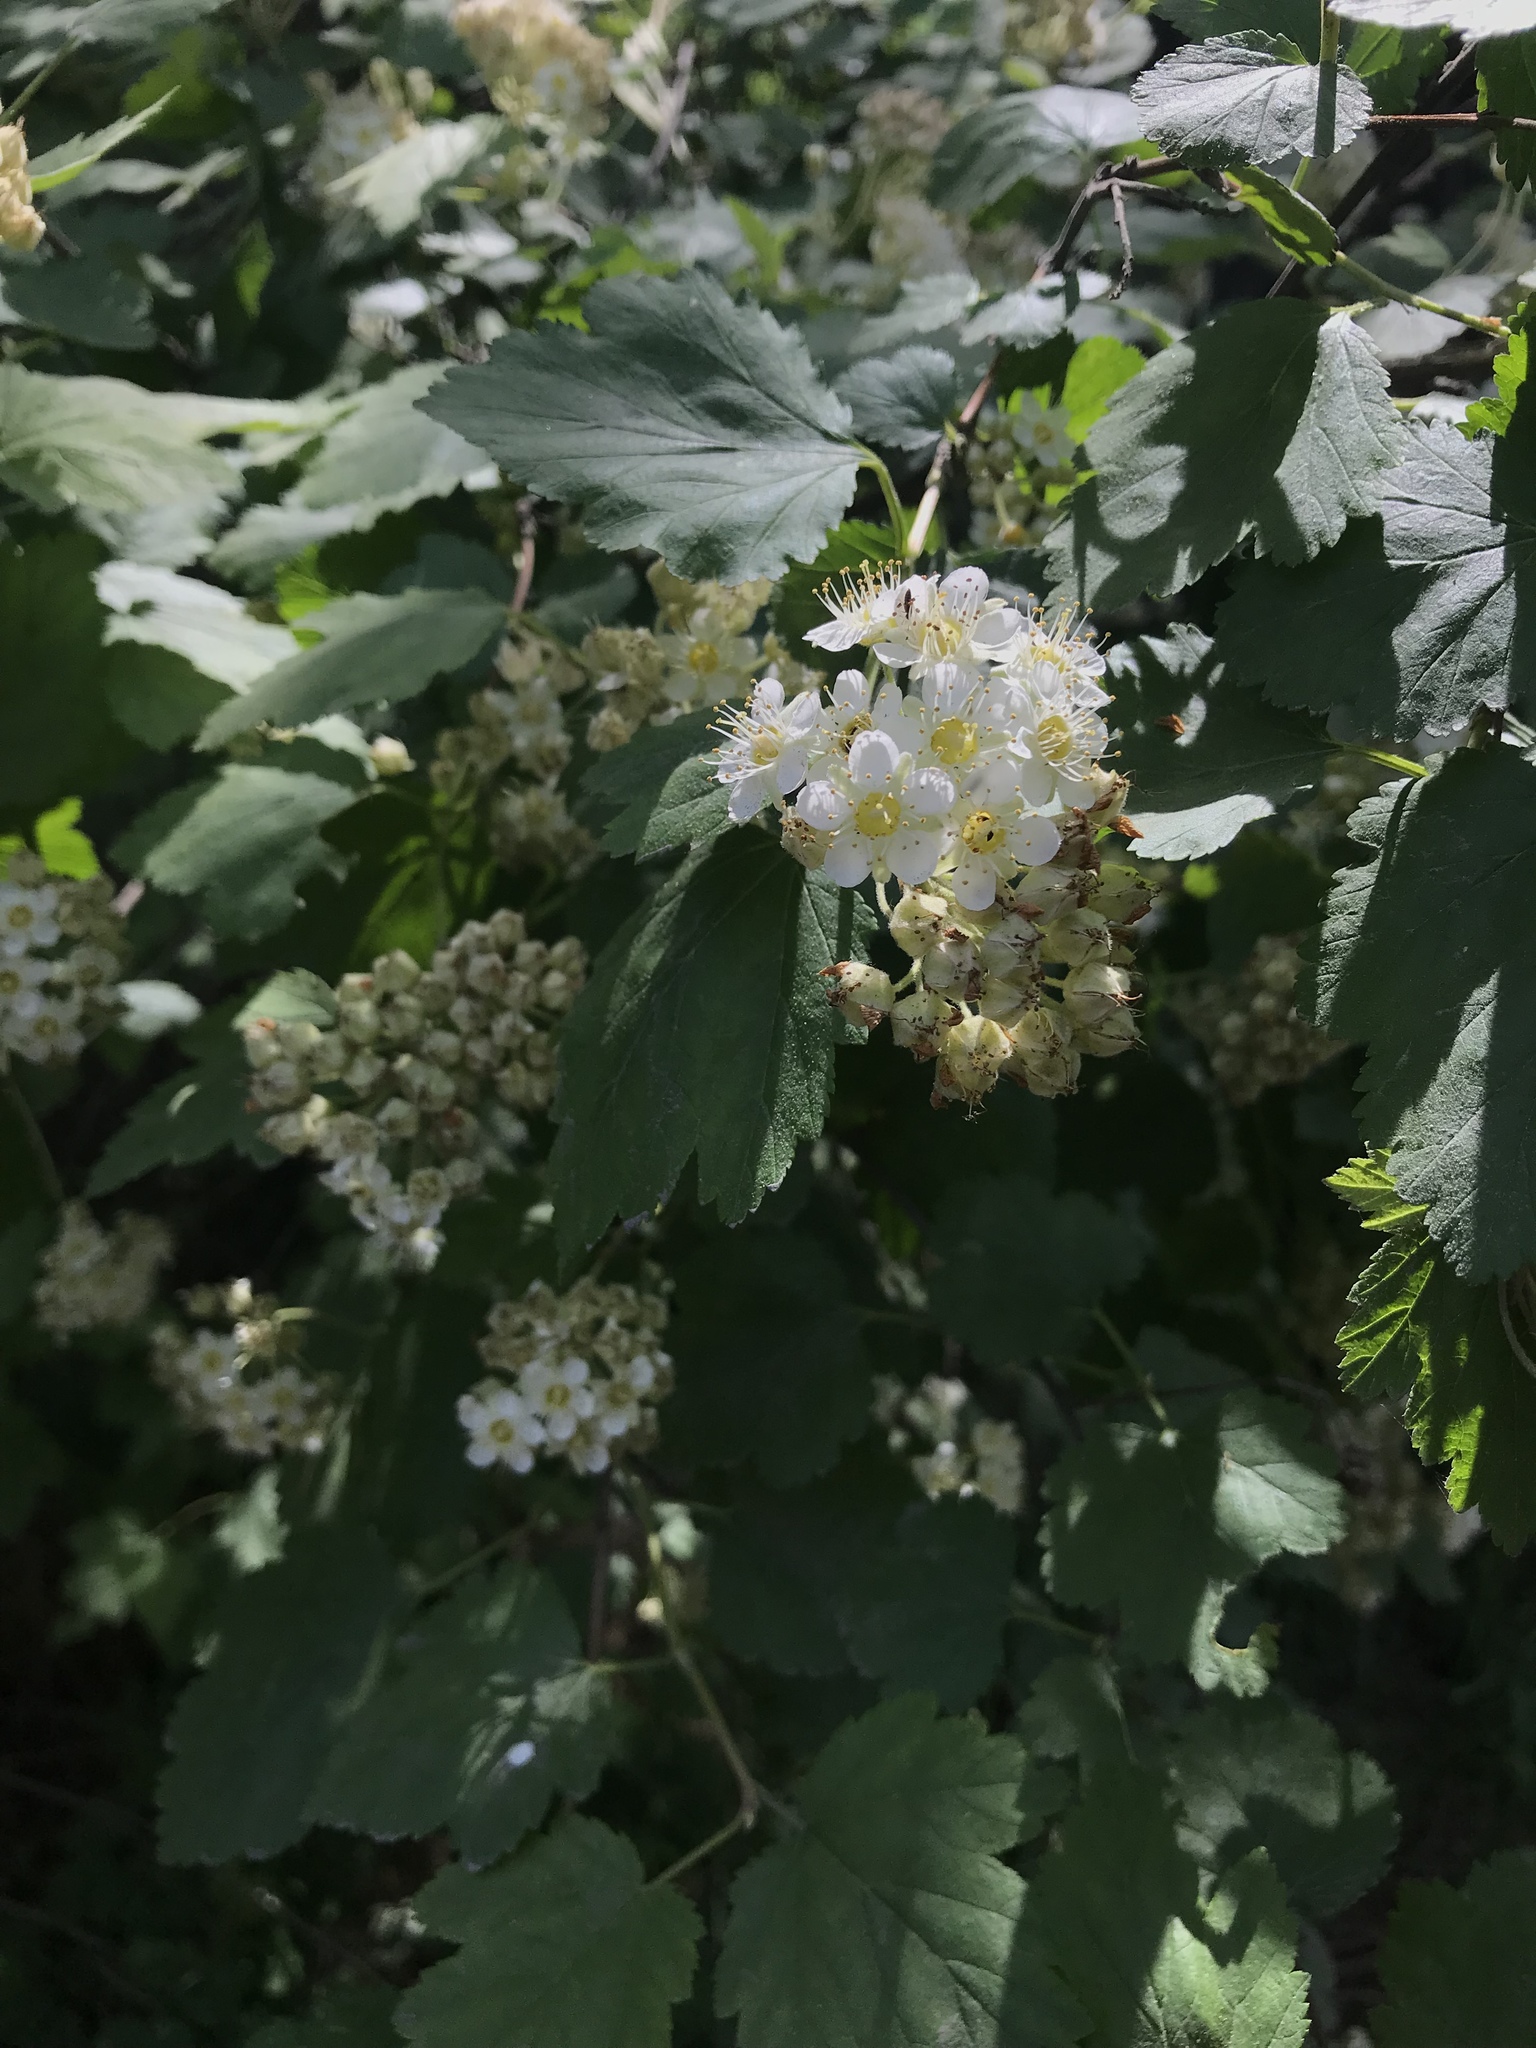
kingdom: Plantae
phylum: Tracheophyta
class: Magnoliopsida
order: Rosales
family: Rosaceae
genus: Physocarpus
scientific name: Physocarpus malvaceus
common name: Mallow ninebark
